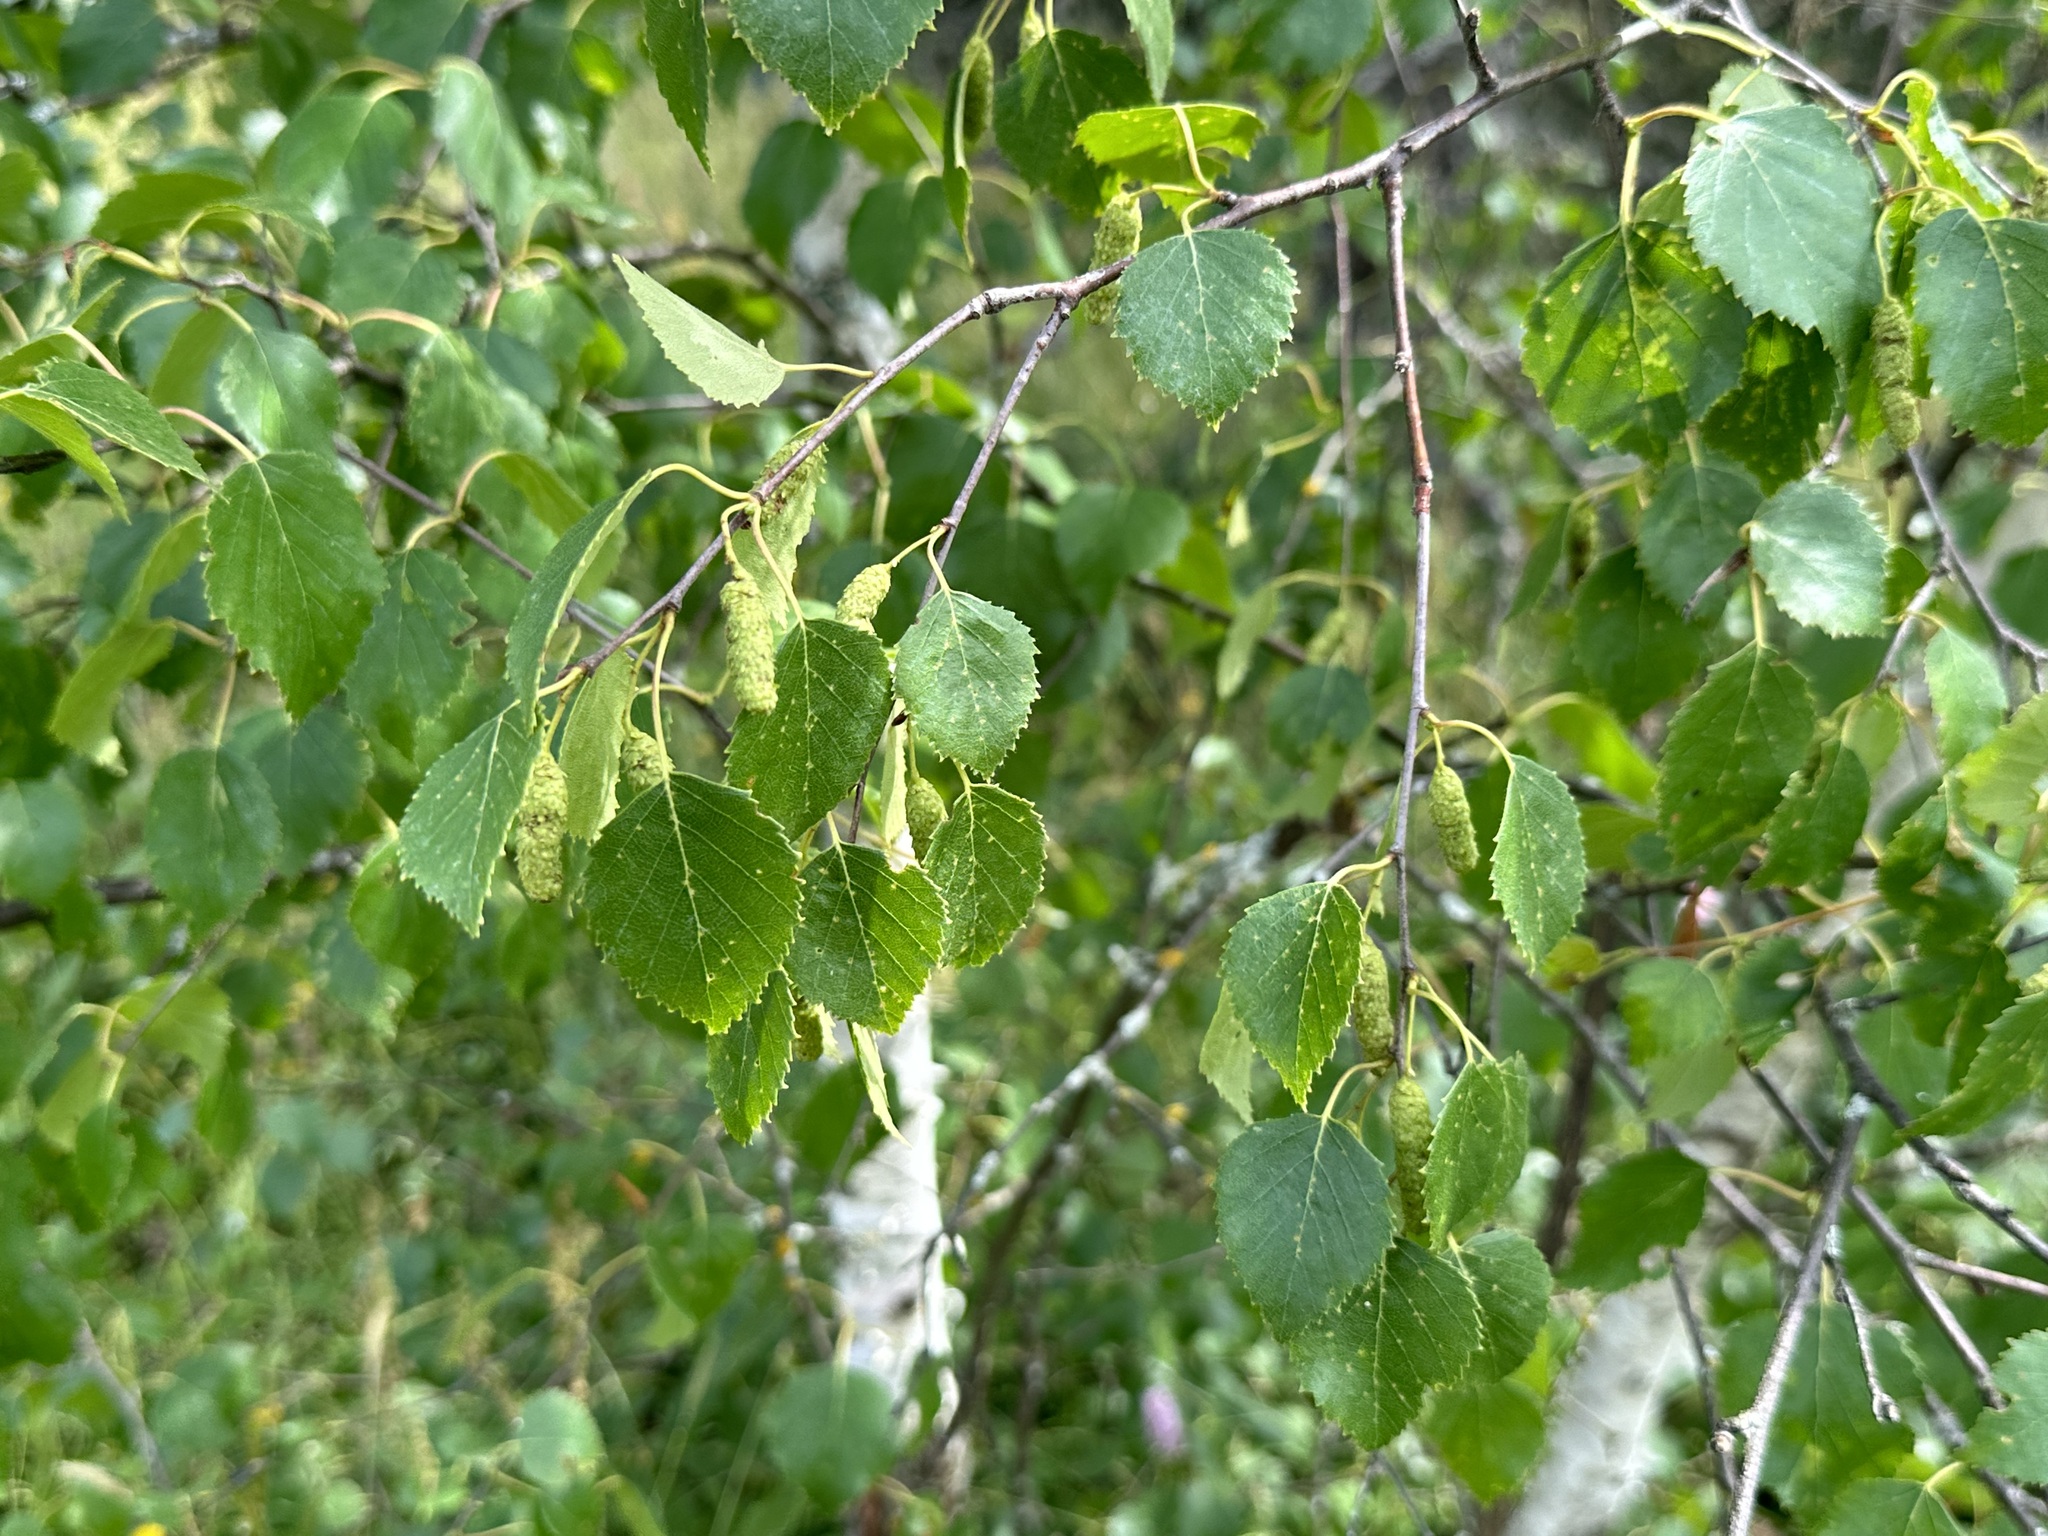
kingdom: Plantae
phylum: Tracheophyta
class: Magnoliopsida
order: Fagales
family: Betulaceae
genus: Betula
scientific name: Betula pendula
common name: Silver birch
